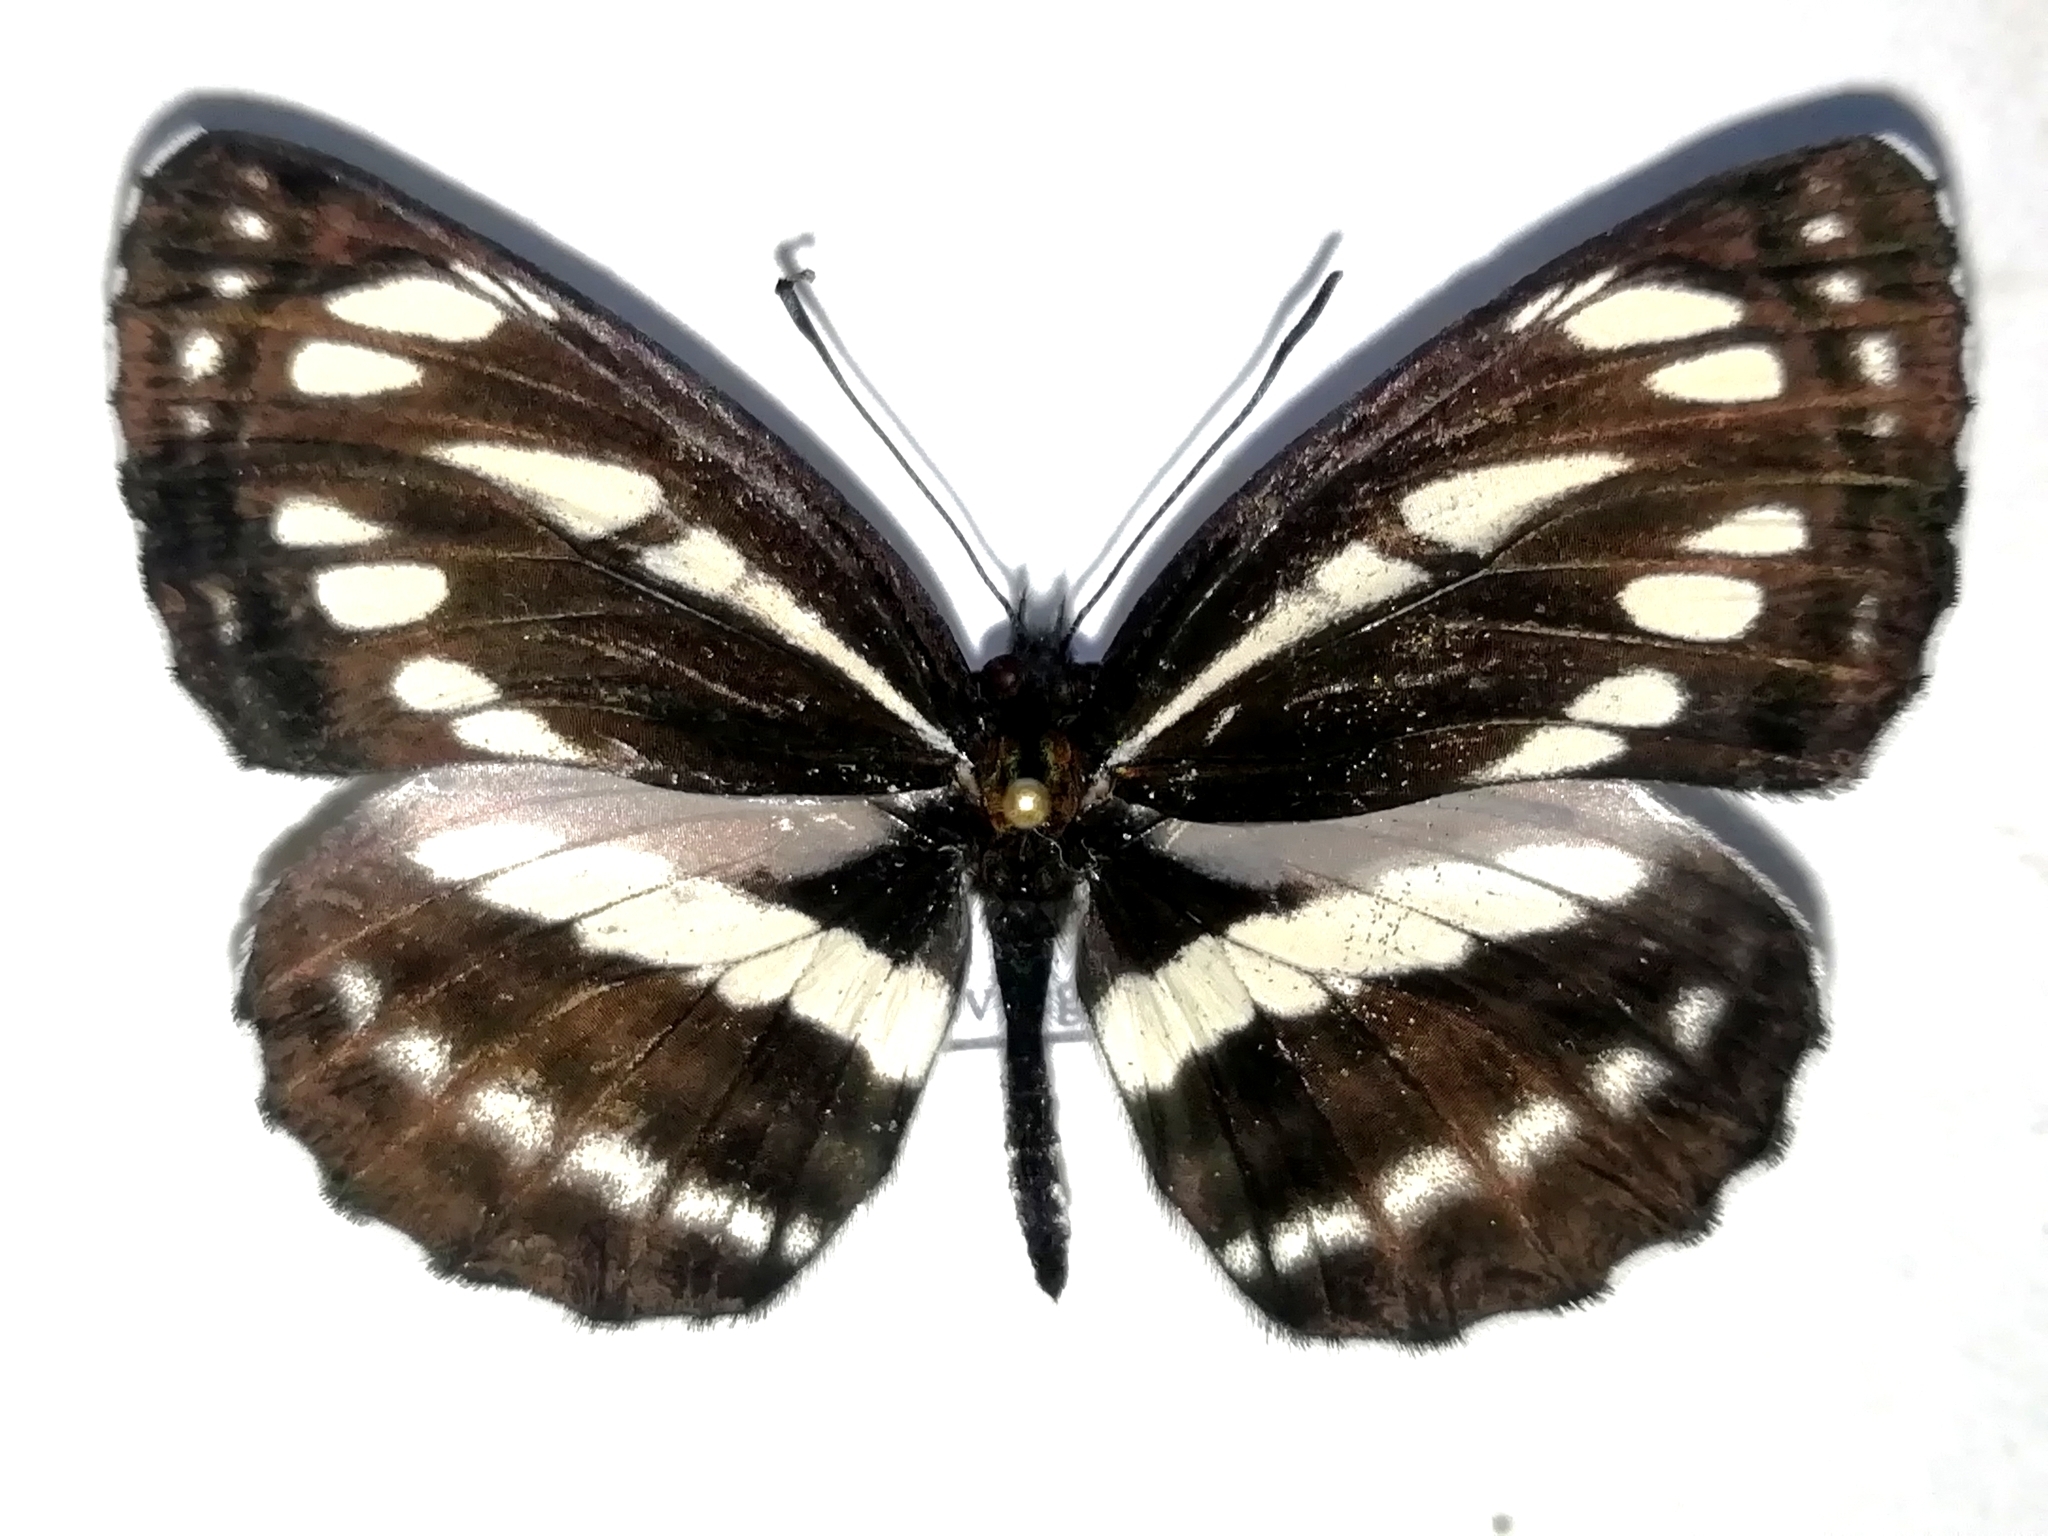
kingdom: Animalia
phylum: Arthropoda
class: Insecta
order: Lepidoptera
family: Nymphalidae
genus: Neptis
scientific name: Neptis sappho
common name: Common glider
